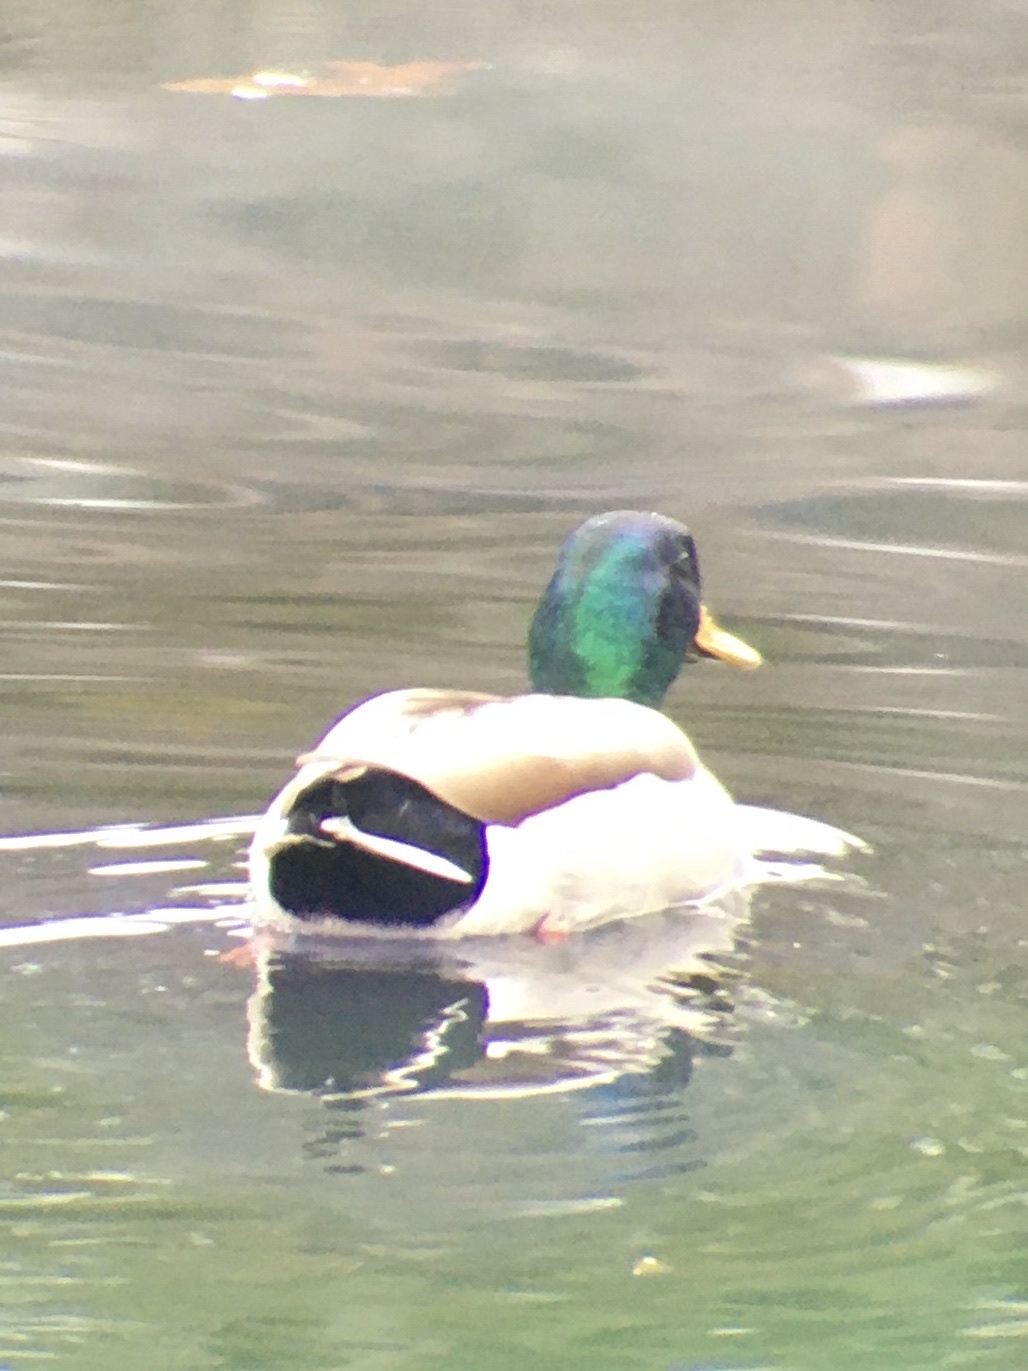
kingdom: Animalia
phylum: Chordata
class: Aves
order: Anseriformes
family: Anatidae
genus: Anas
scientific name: Anas platyrhynchos
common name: Mallard
